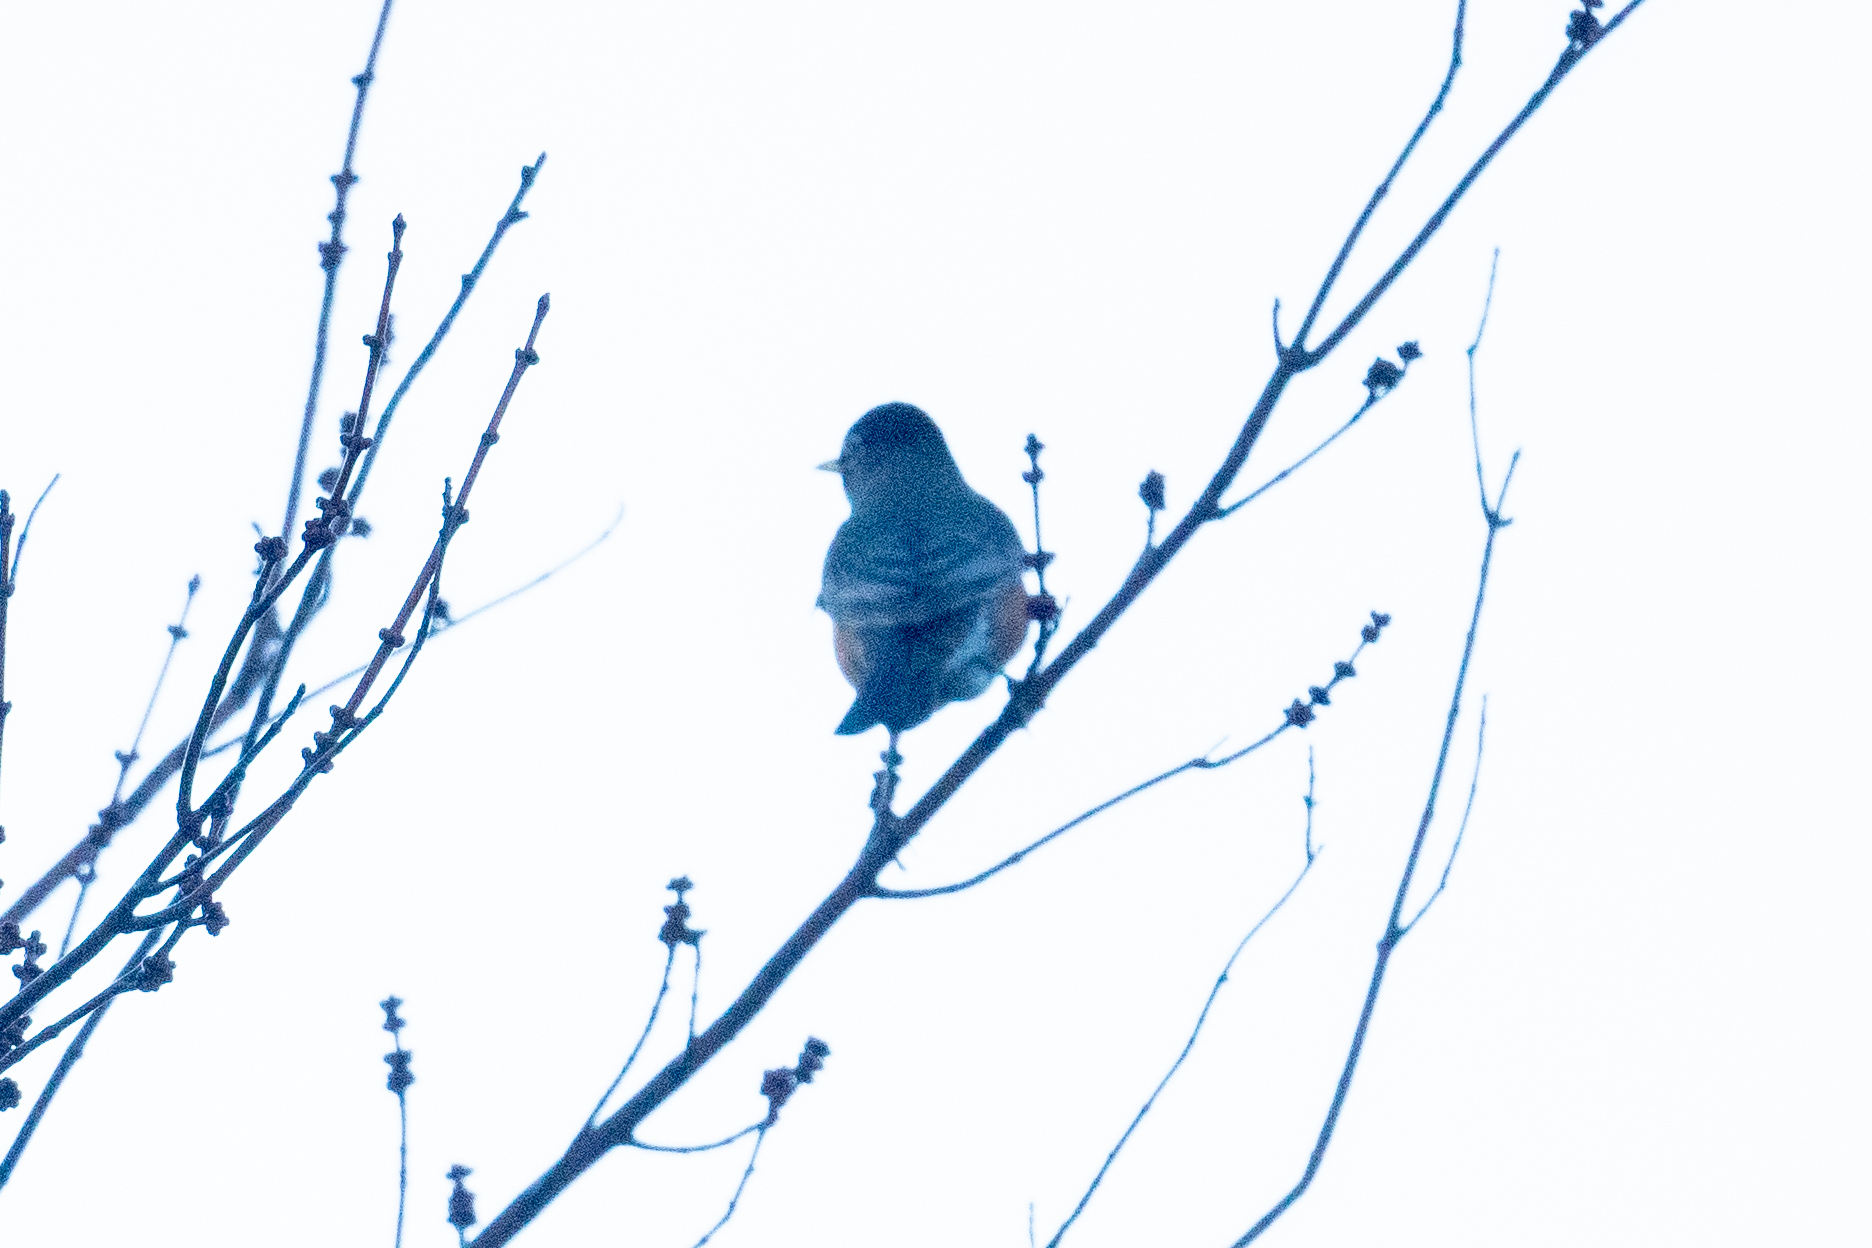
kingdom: Animalia
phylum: Chordata
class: Aves
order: Passeriformes
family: Turdidae
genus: Turdus
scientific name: Turdus migratorius
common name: American robin
